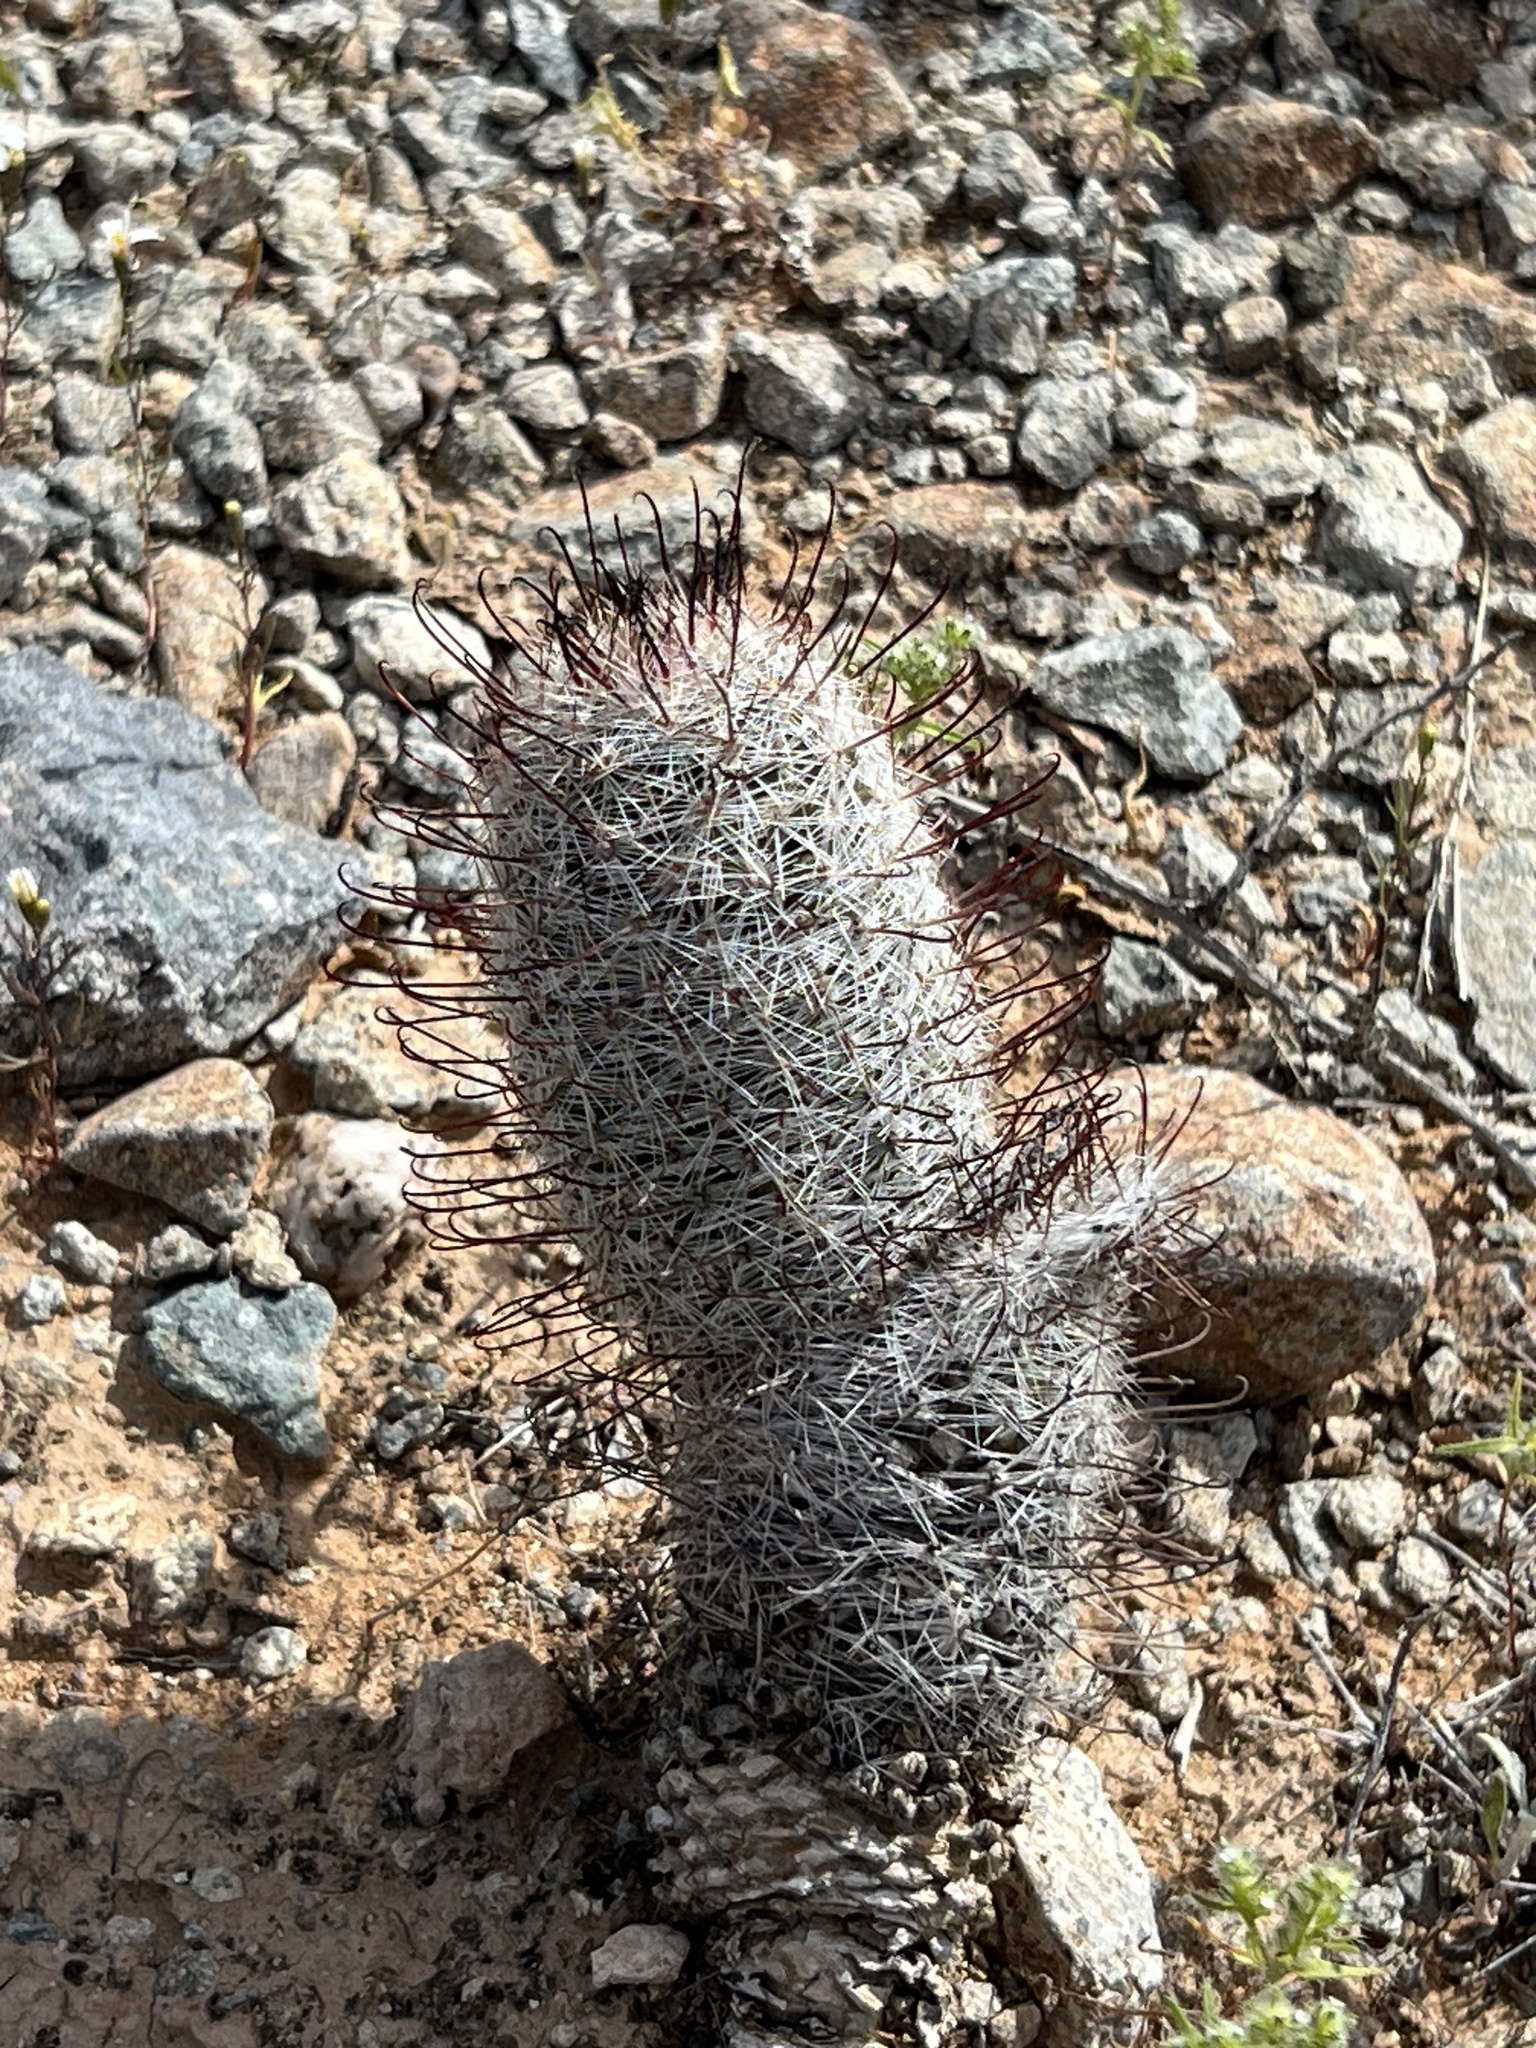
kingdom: Plantae
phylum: Tracheophyta
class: Magnoliopsida
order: Caryophyllales
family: Cactaceae
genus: Cochemiea
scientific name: Cochemiea grahamii
